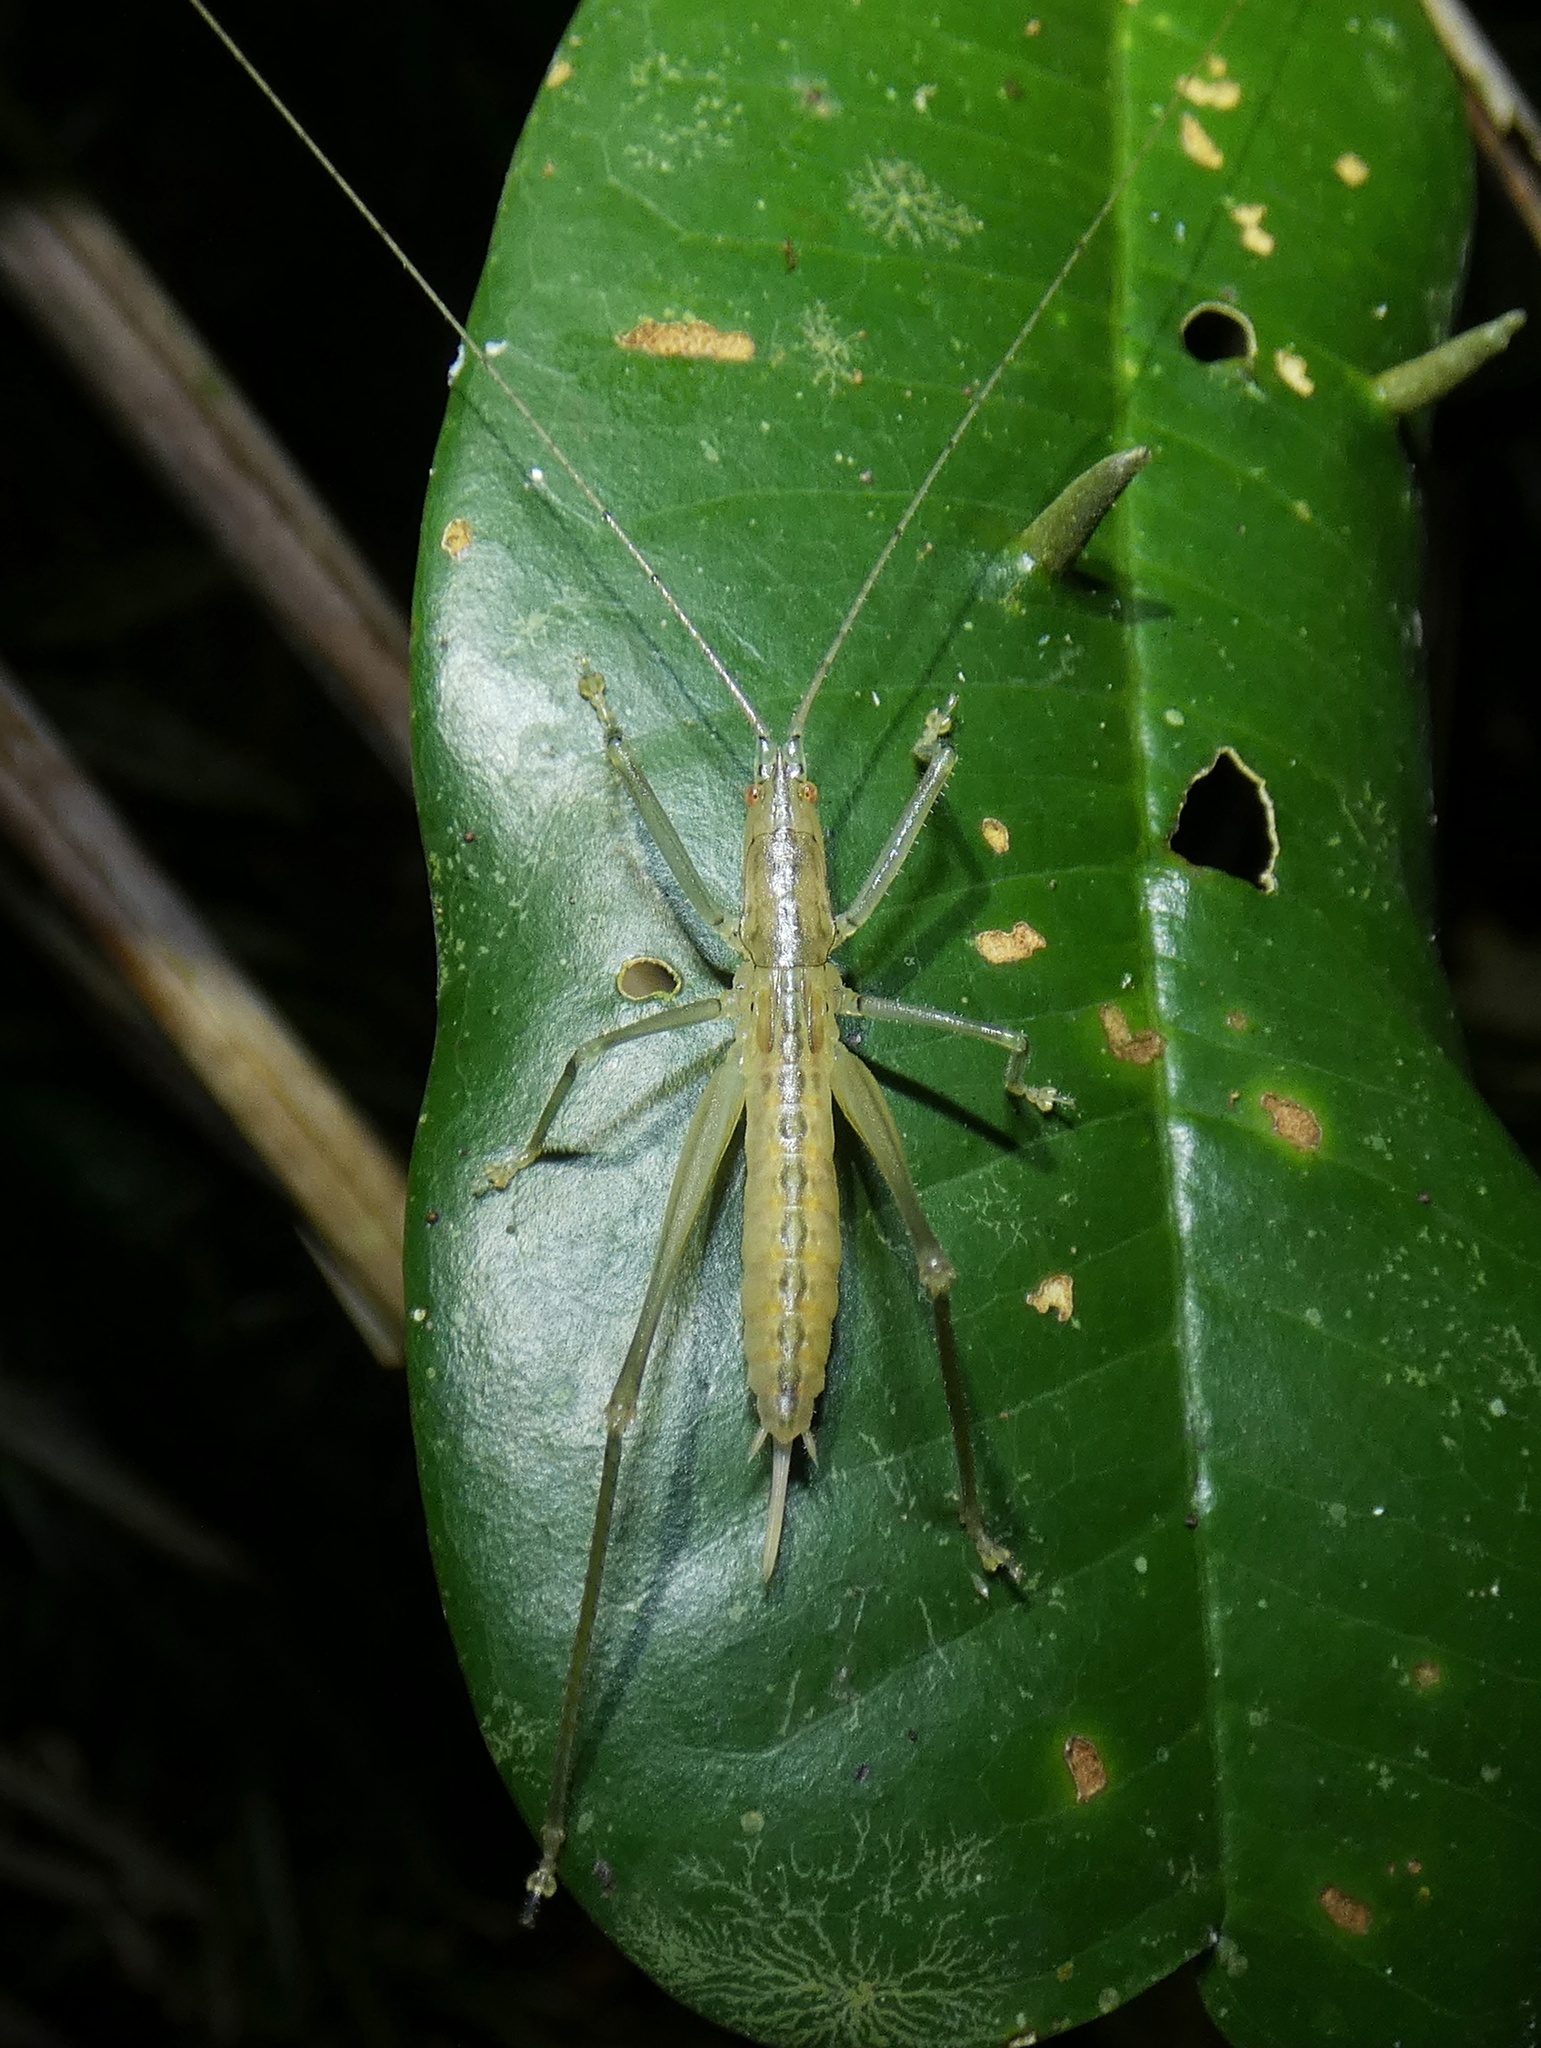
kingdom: Animalia
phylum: Arthropoda
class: Insecta
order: Orthoptera
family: Tettigoniidae
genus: Greenagraecia
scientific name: Greenagraecia attenuata
